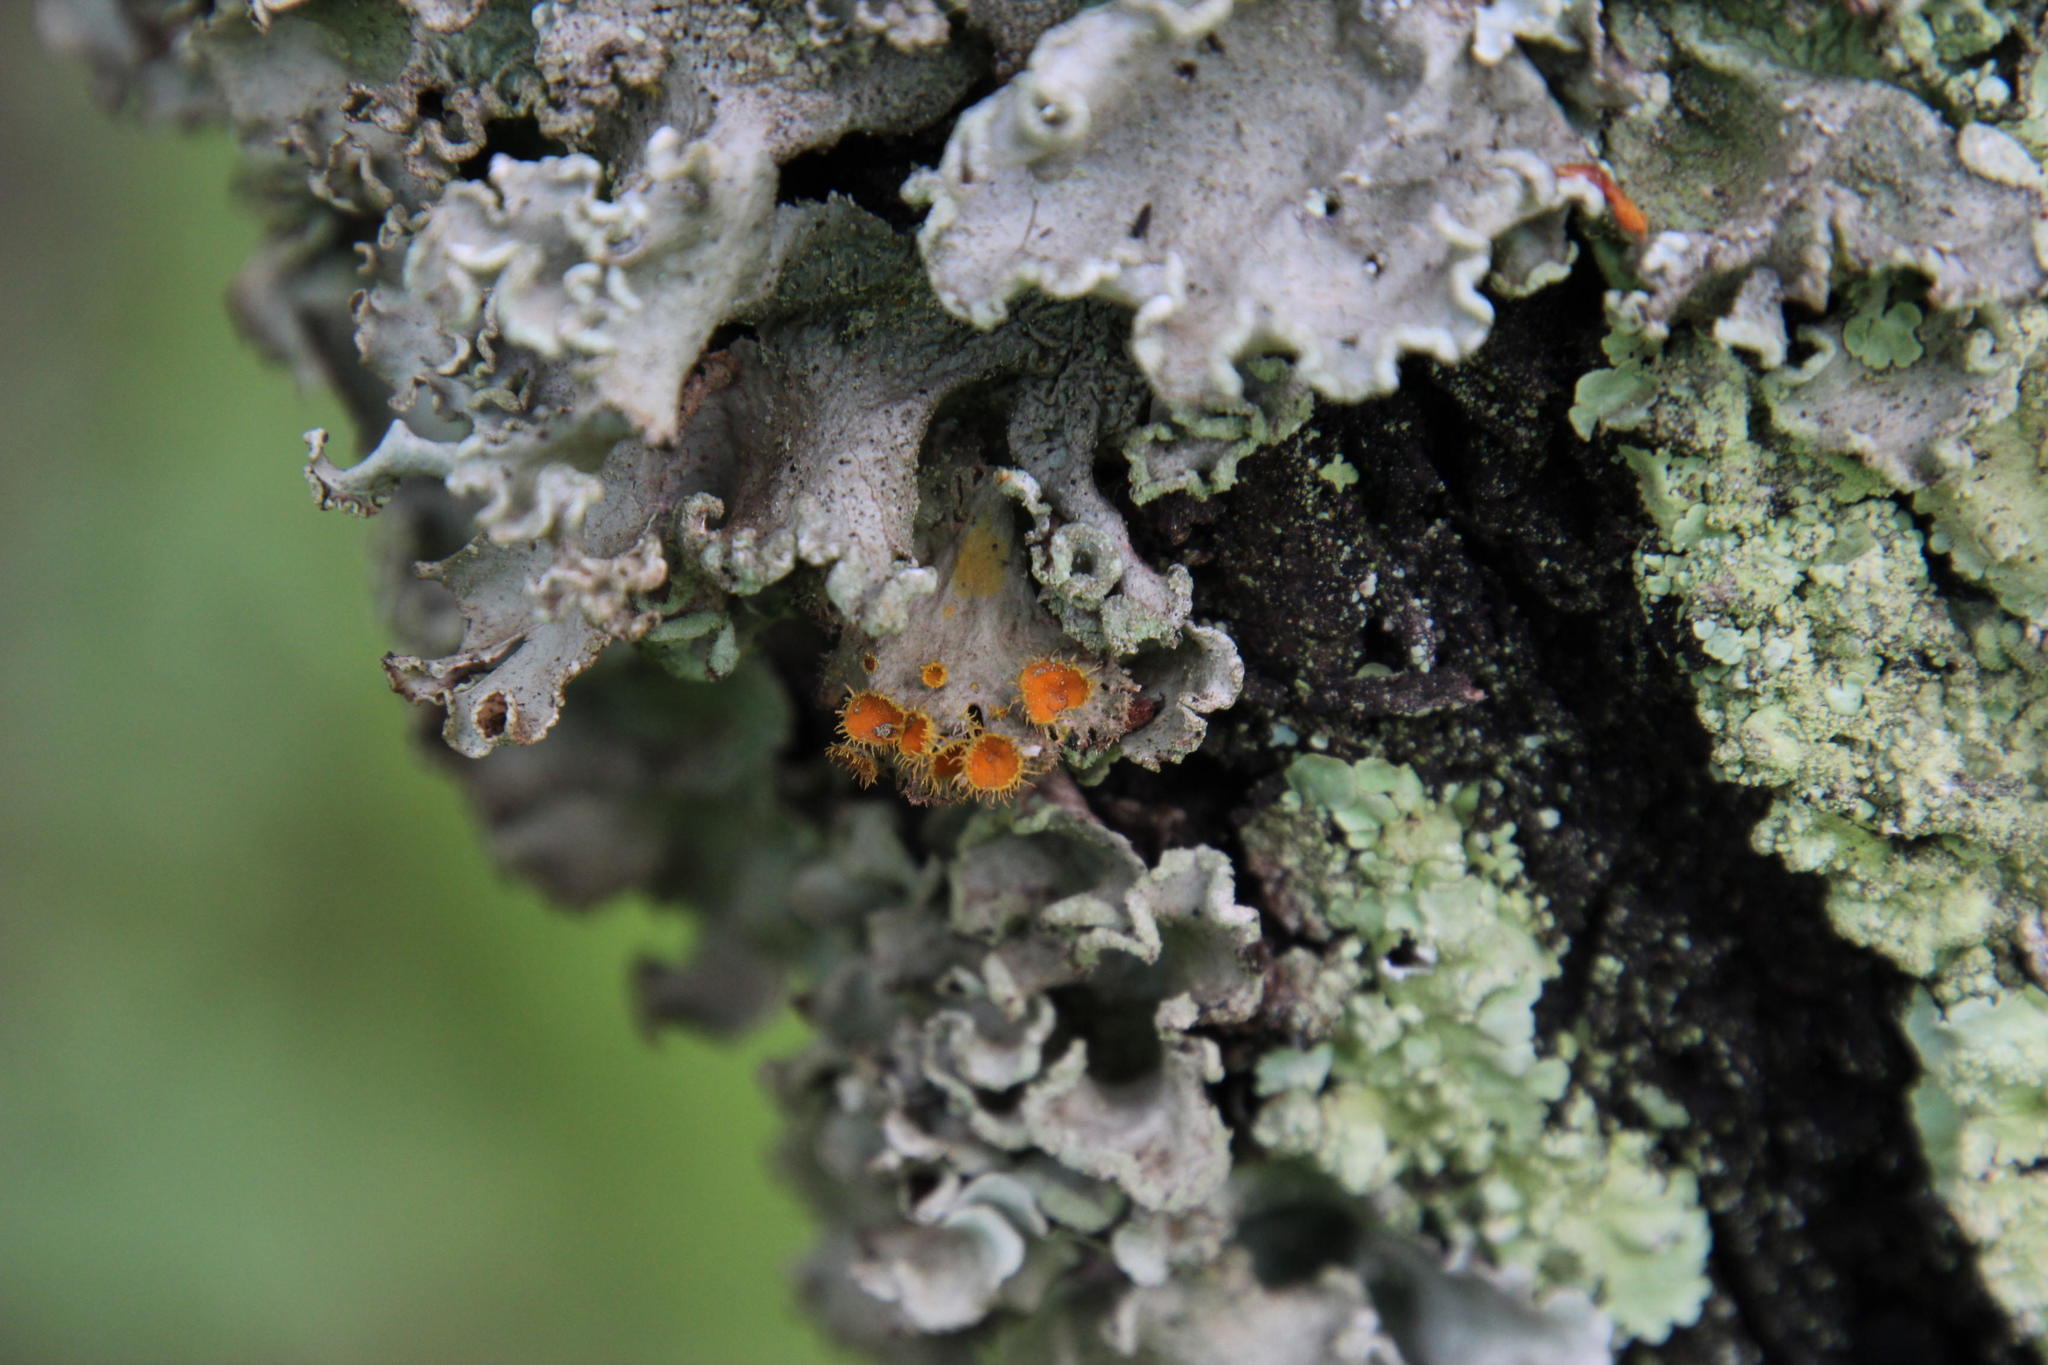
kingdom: Fungi
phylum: Ascomycota
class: Lecanoromycetes
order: Teloschistales
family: Teloschistaceae
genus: Niorma
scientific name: Niorma hypoglauca
